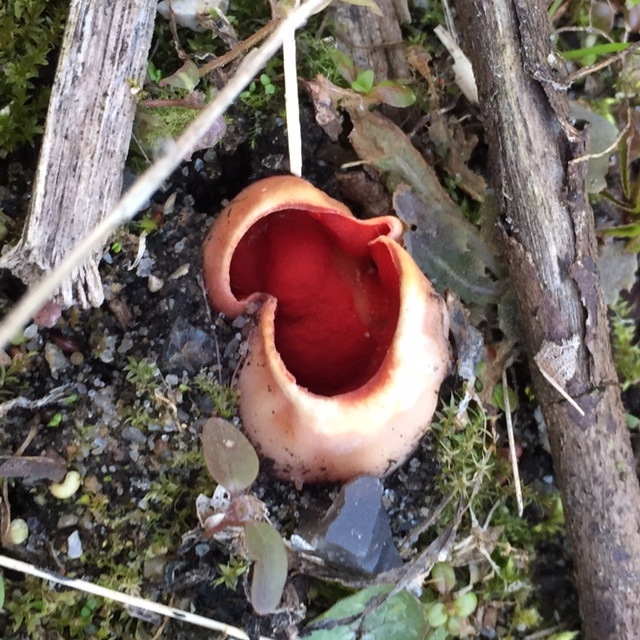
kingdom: Fungi
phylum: Ascomycota
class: Pezizomycetes
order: Pezizales
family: Sarcoscyphaceae
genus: Sarcoscypha
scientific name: Sarcoscypha
